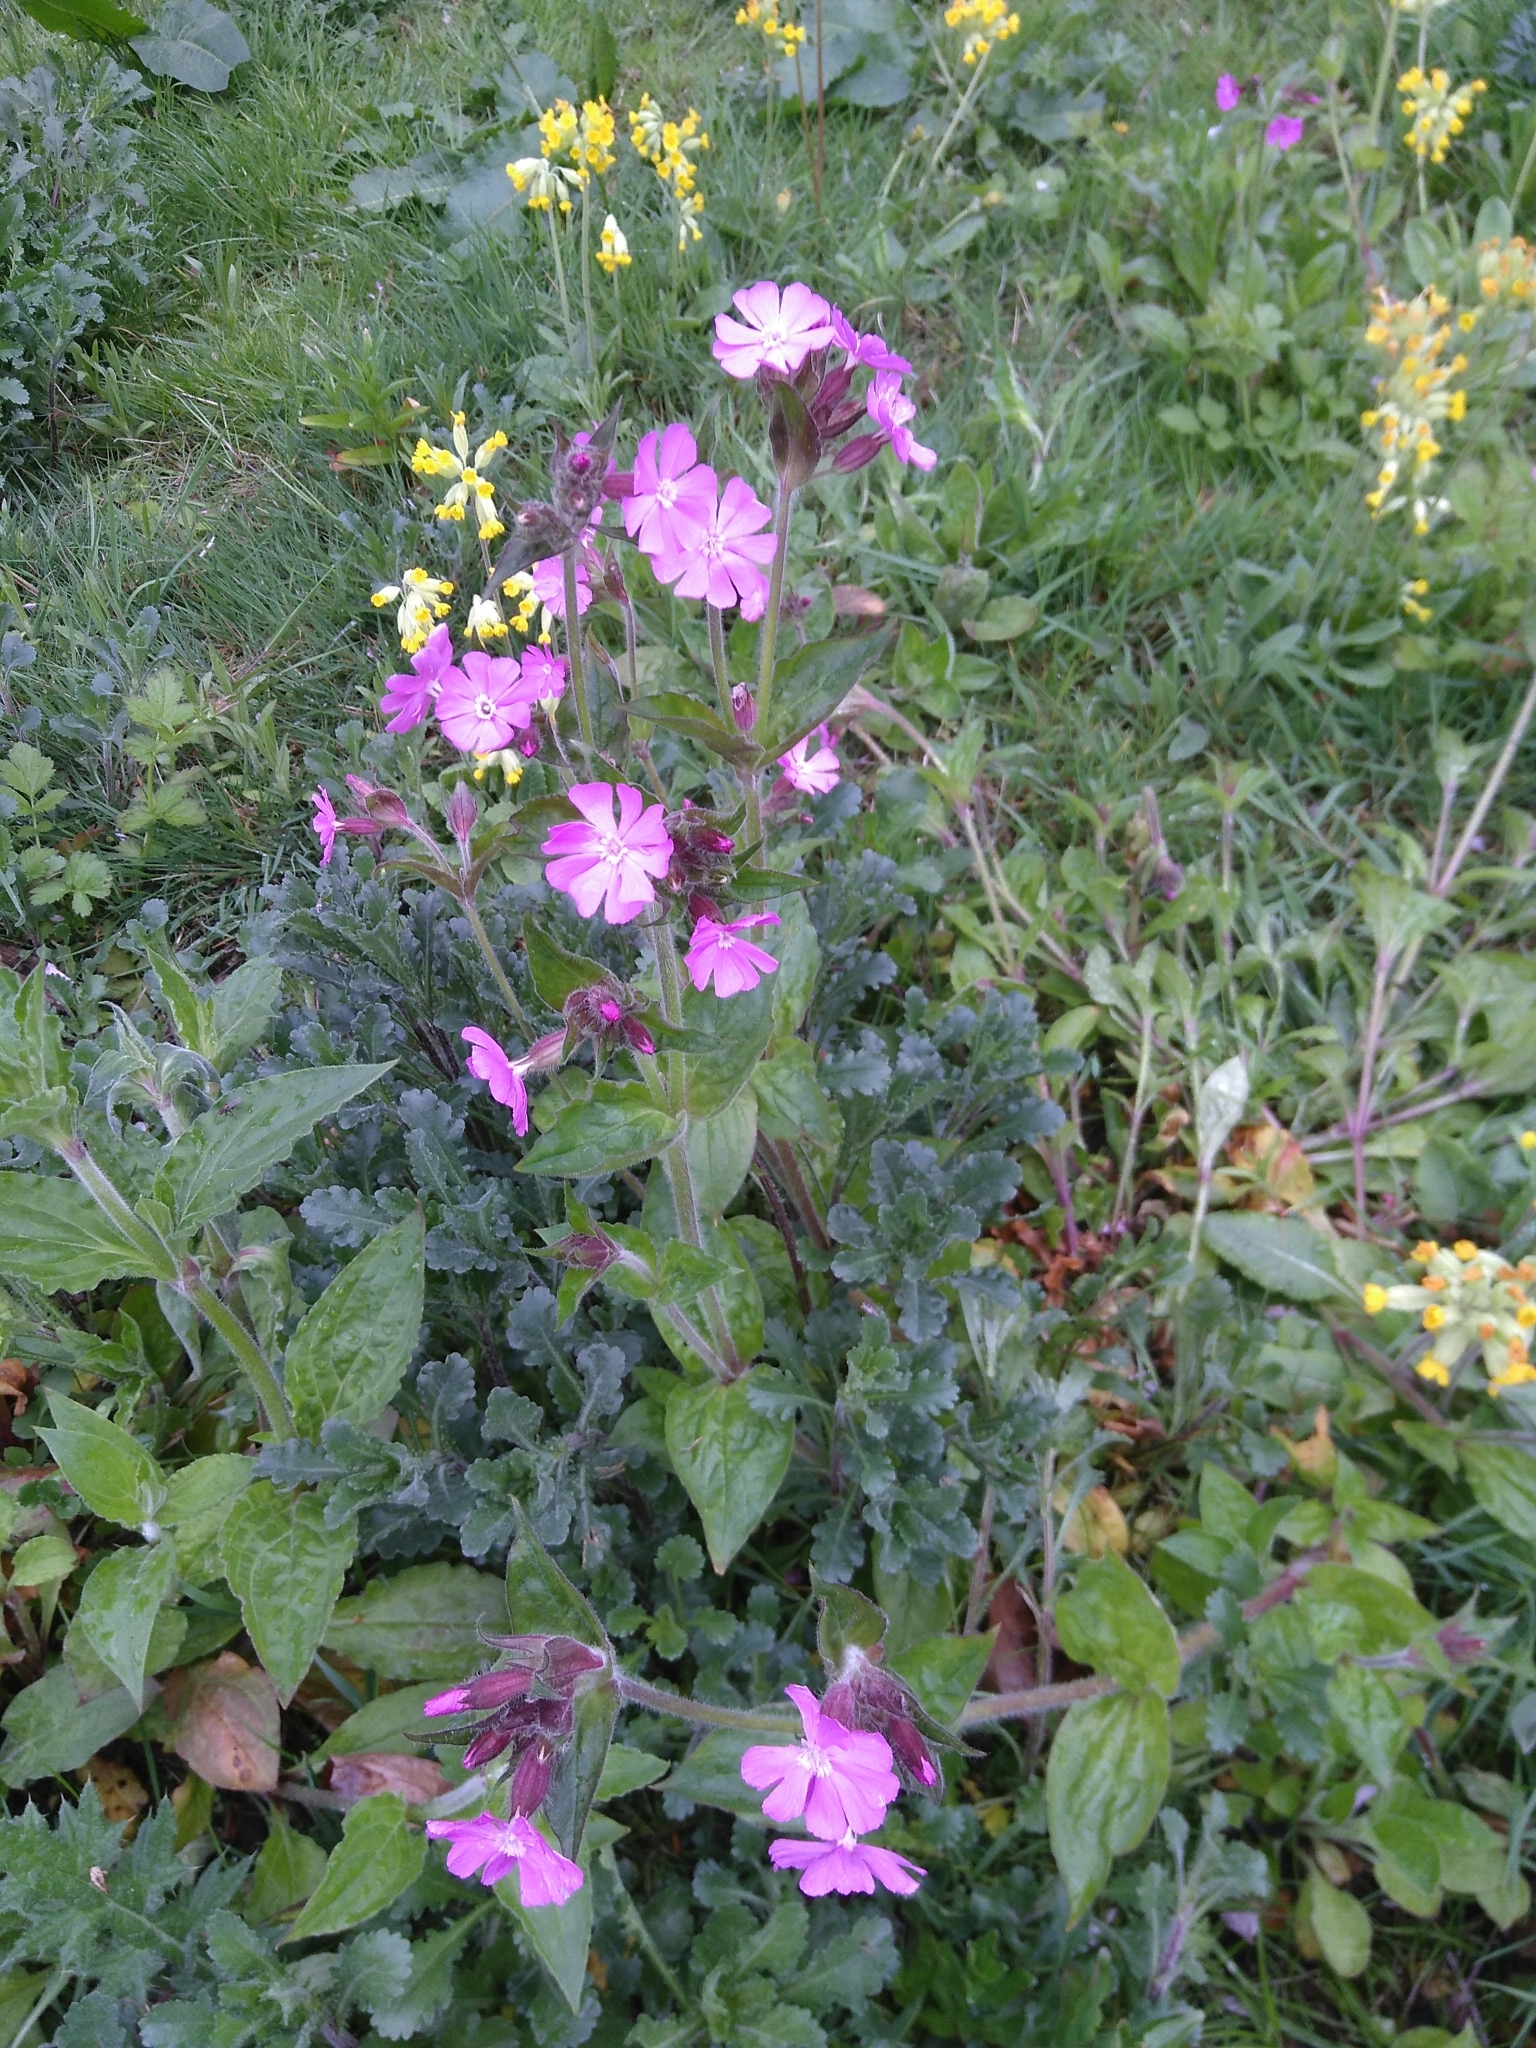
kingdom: Plantae
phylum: Tracheophyta
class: Magnoliopsida
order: Caryophyllales
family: Caryophyllaceae
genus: Silene
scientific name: Silene dioica
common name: Red campion
